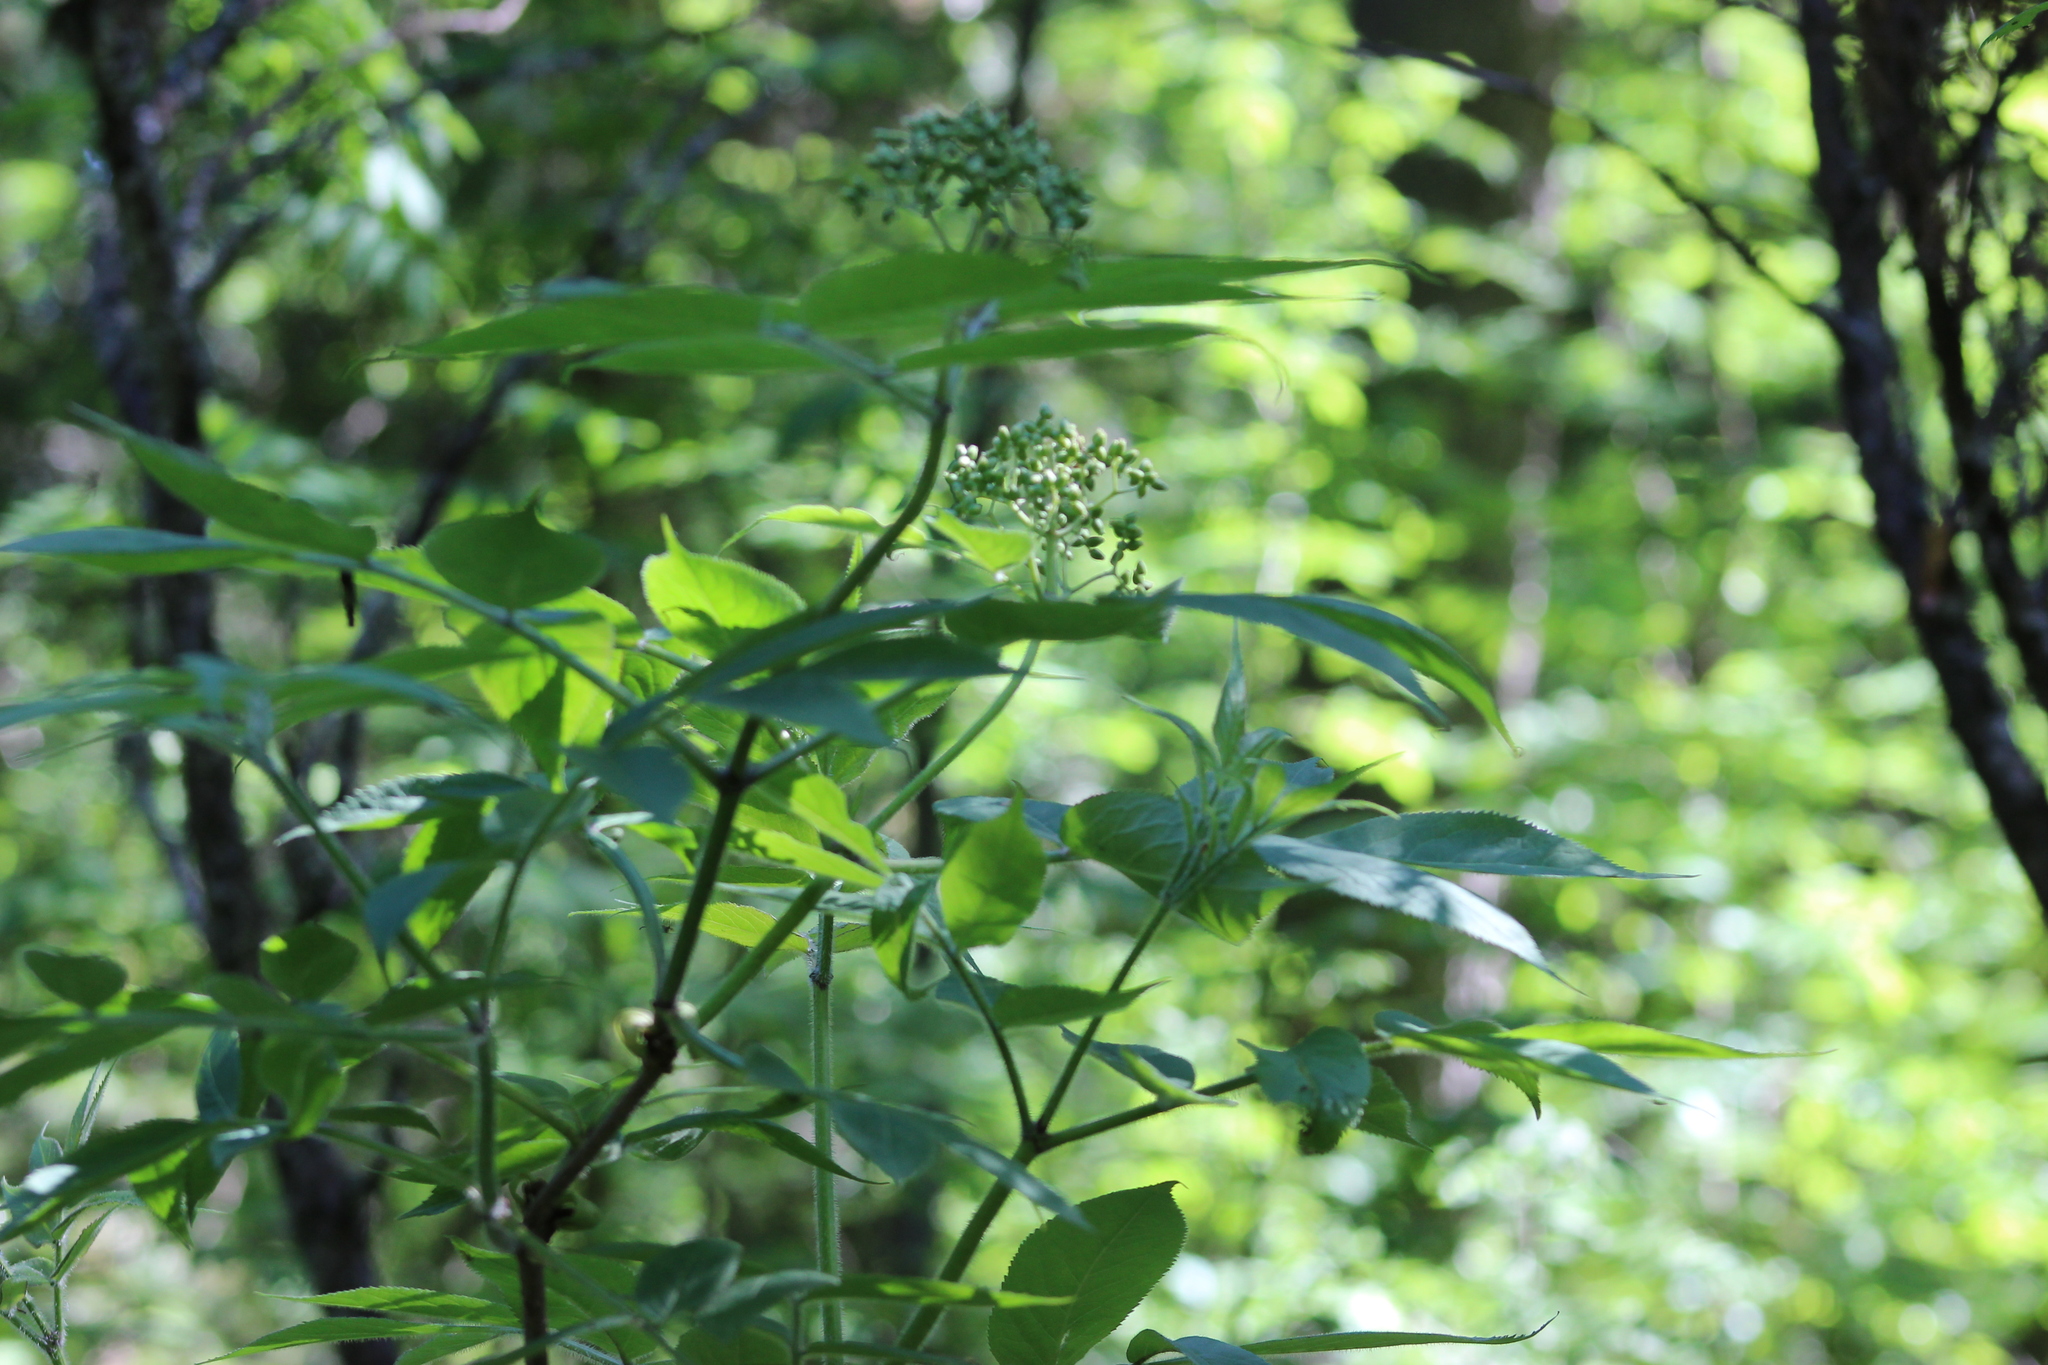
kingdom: Plantae
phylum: Tracheophyta
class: Magnoliopsida
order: Dipsacales
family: Viburnaceae
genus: Sambucus
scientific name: Sambucus sibirica
